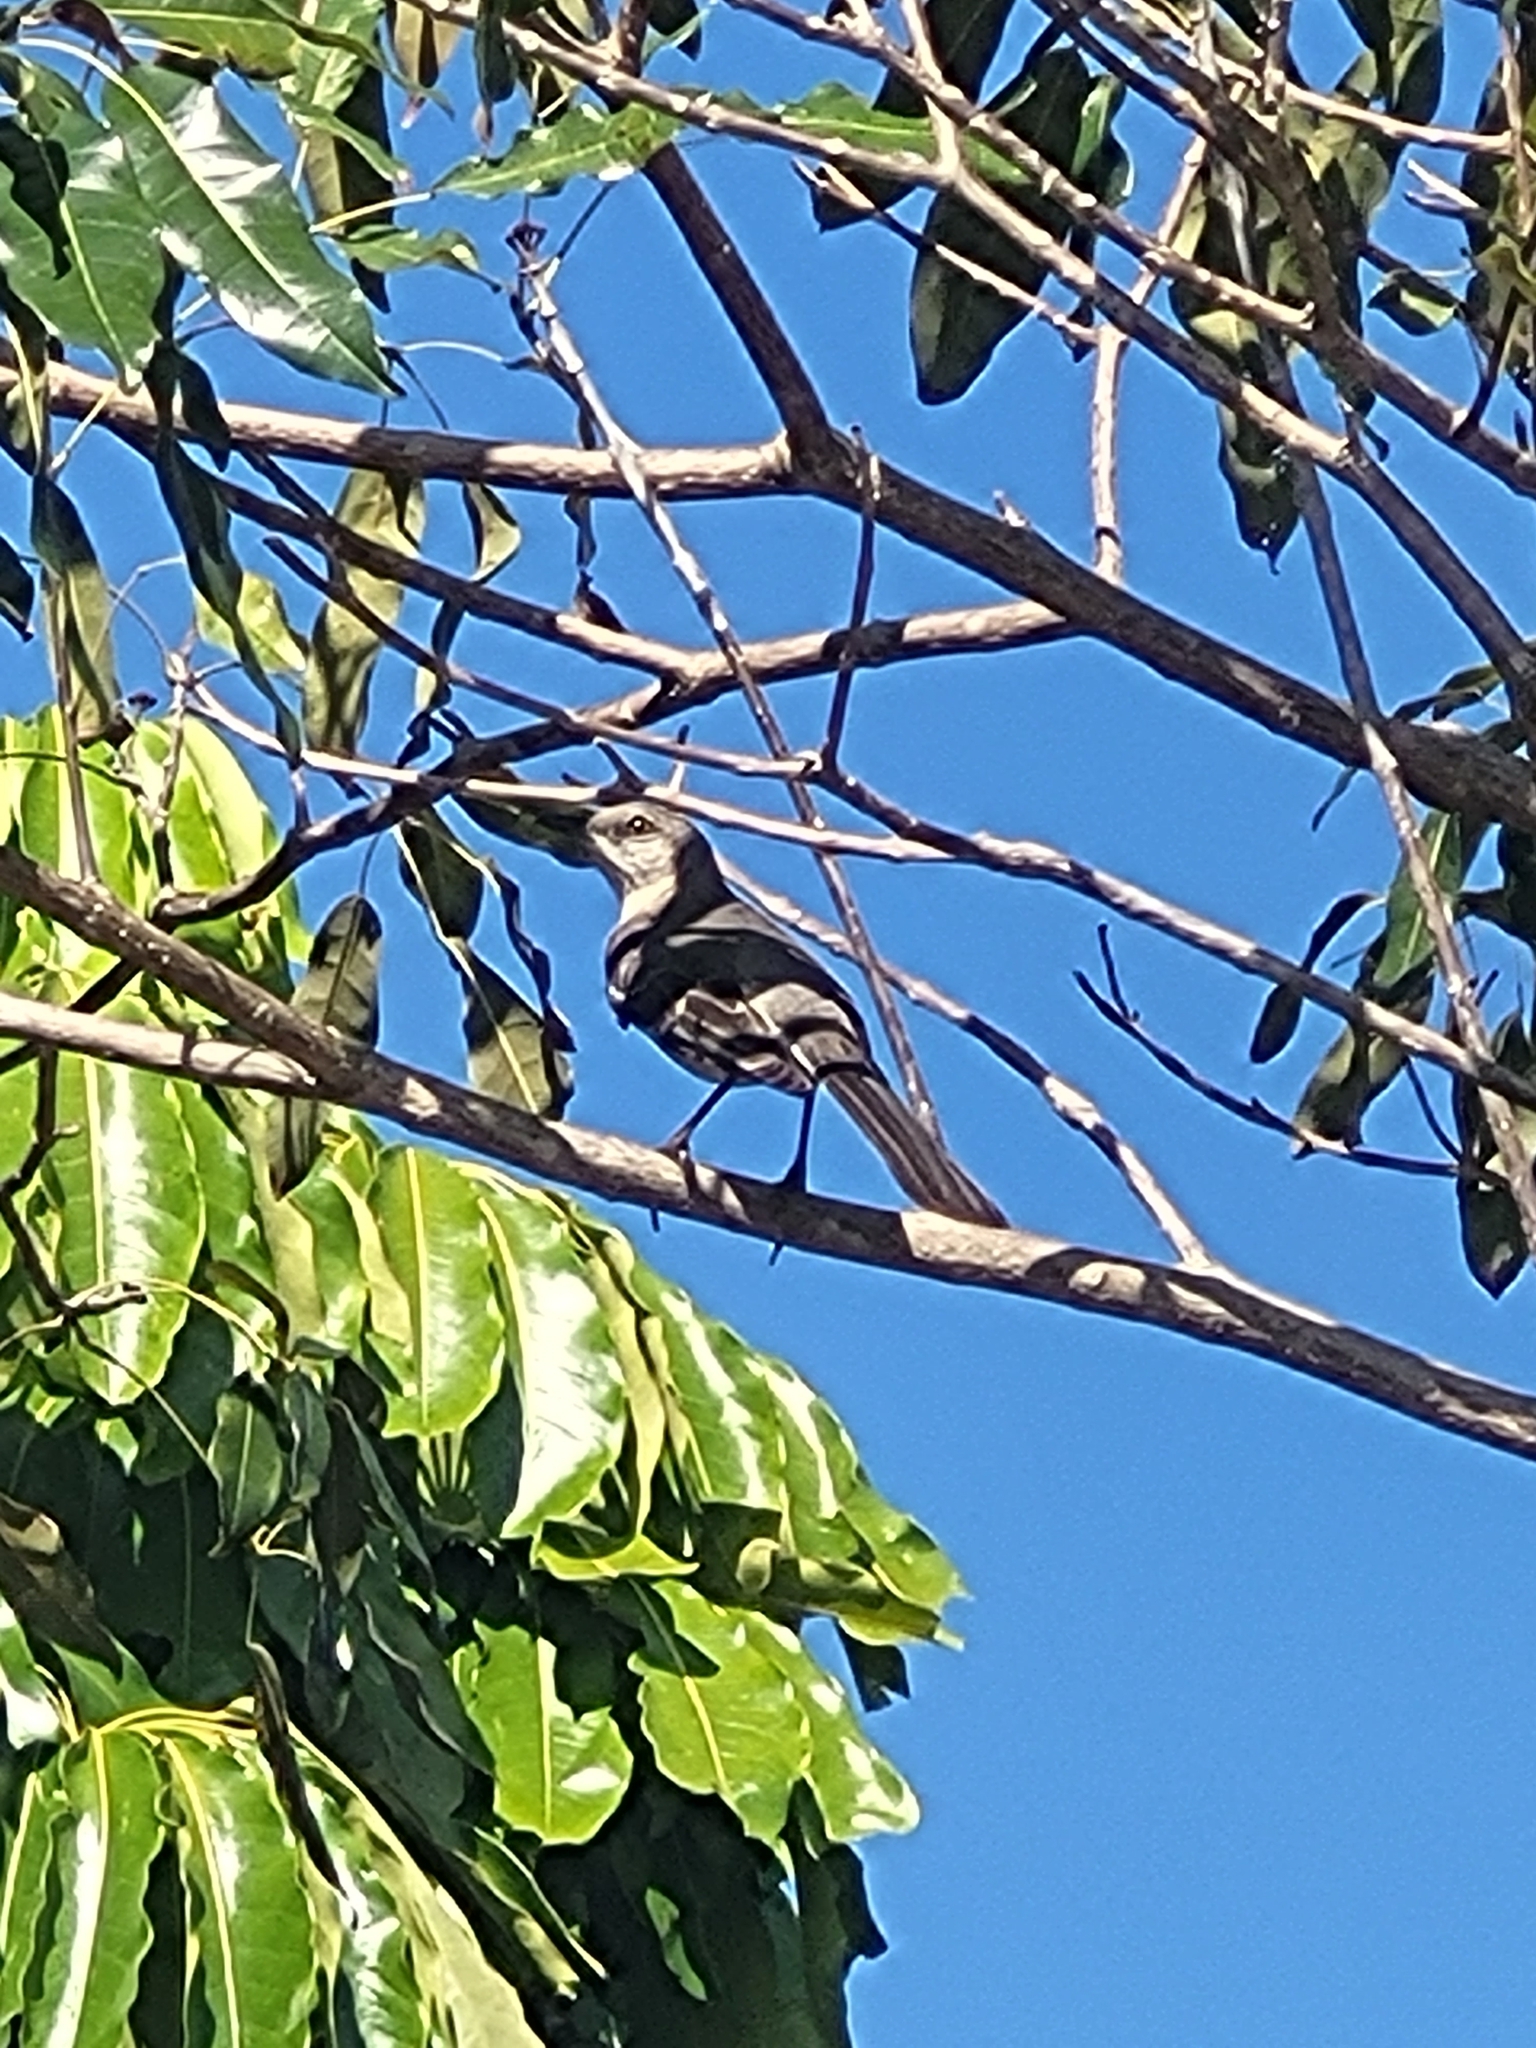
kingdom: Animalia
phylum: Chordata
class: Aves
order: Passeriformes
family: Mimidae
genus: Mimus
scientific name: Mimus polyglottos
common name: Northern mockingbird
